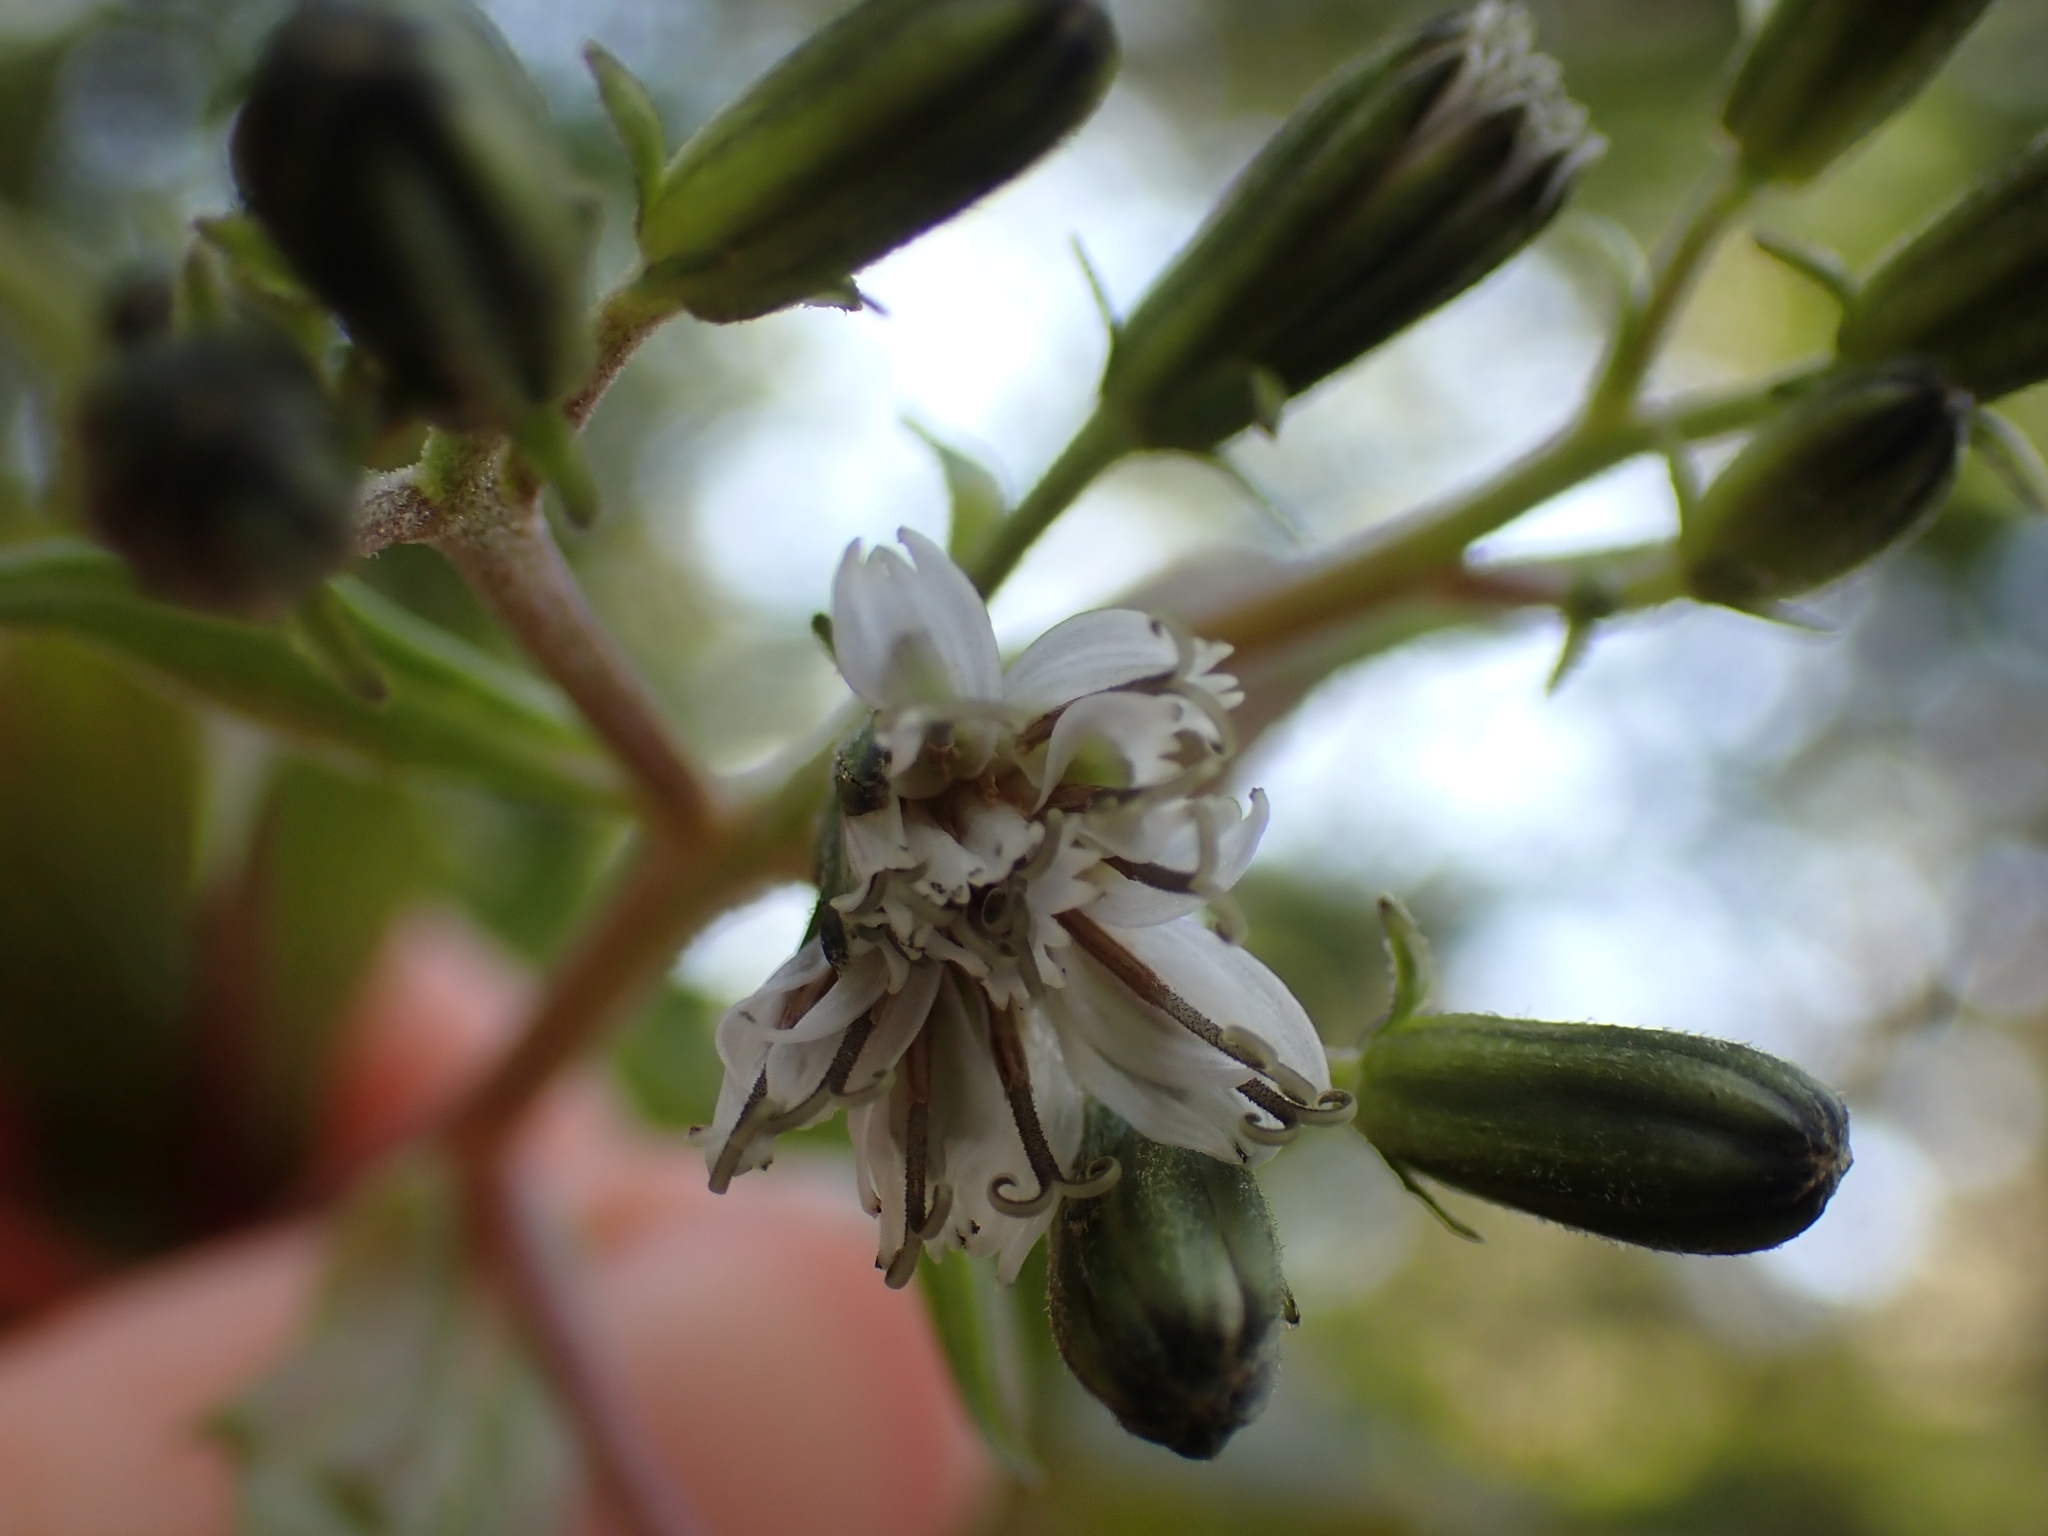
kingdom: Plantae
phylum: Tracheophyta
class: Magnoliopsida
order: Asterales
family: Asteraceae
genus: Nabalus
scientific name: Nabalus hastatus
